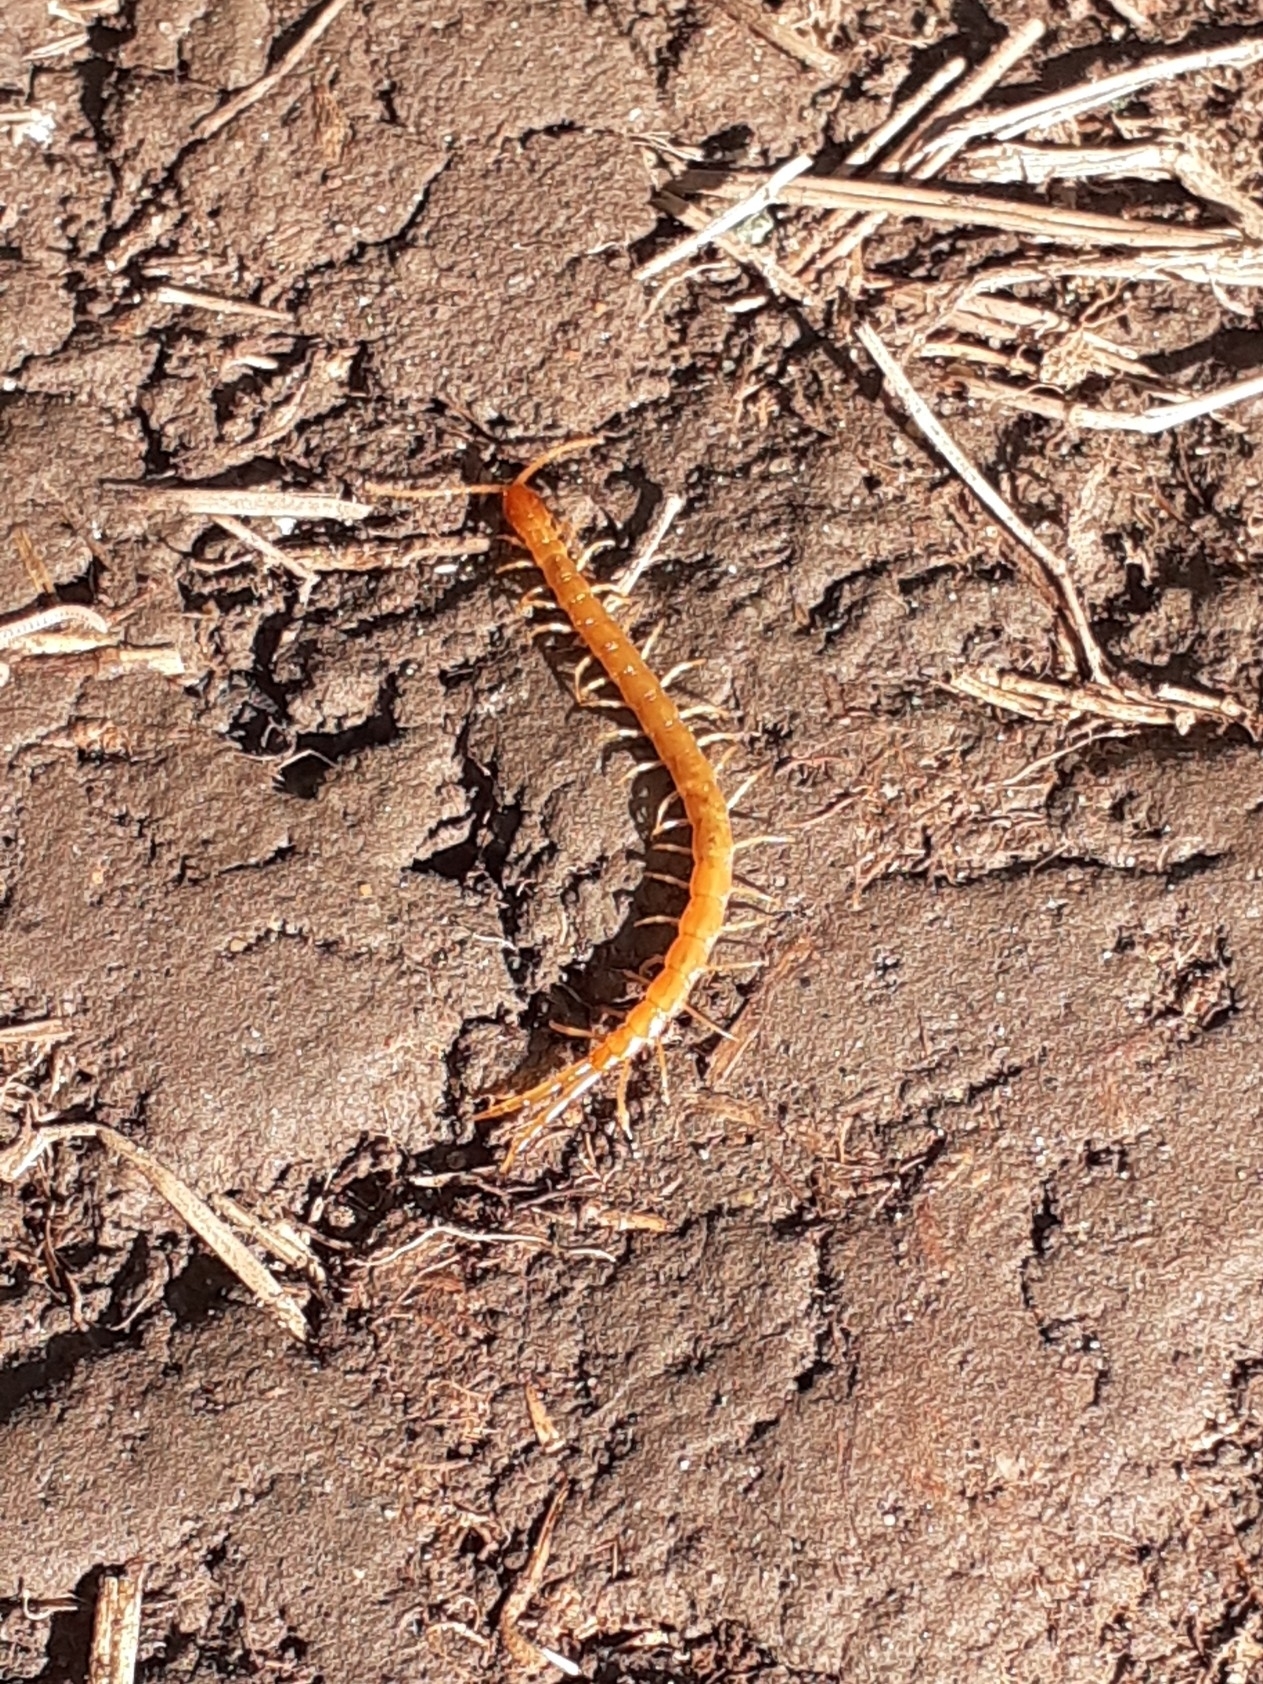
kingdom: Animalia
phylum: Arthropoda
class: Chilopoda
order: Scolopendromorpha
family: Cryptopidae
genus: Cryptops
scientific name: Cryptops
